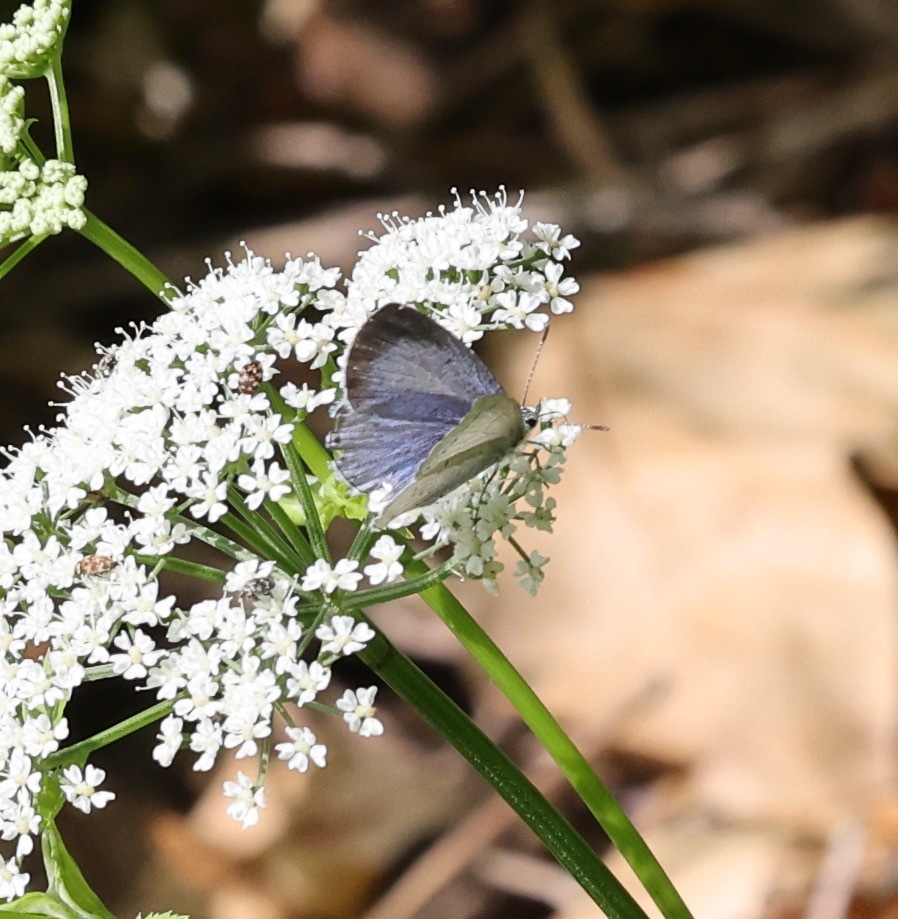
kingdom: Animalia
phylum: Arthropoda
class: Insecta
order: Lepidoptera
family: Lycaenidae
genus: Celastrina
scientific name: Celastrina argiolus
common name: Holly blue
